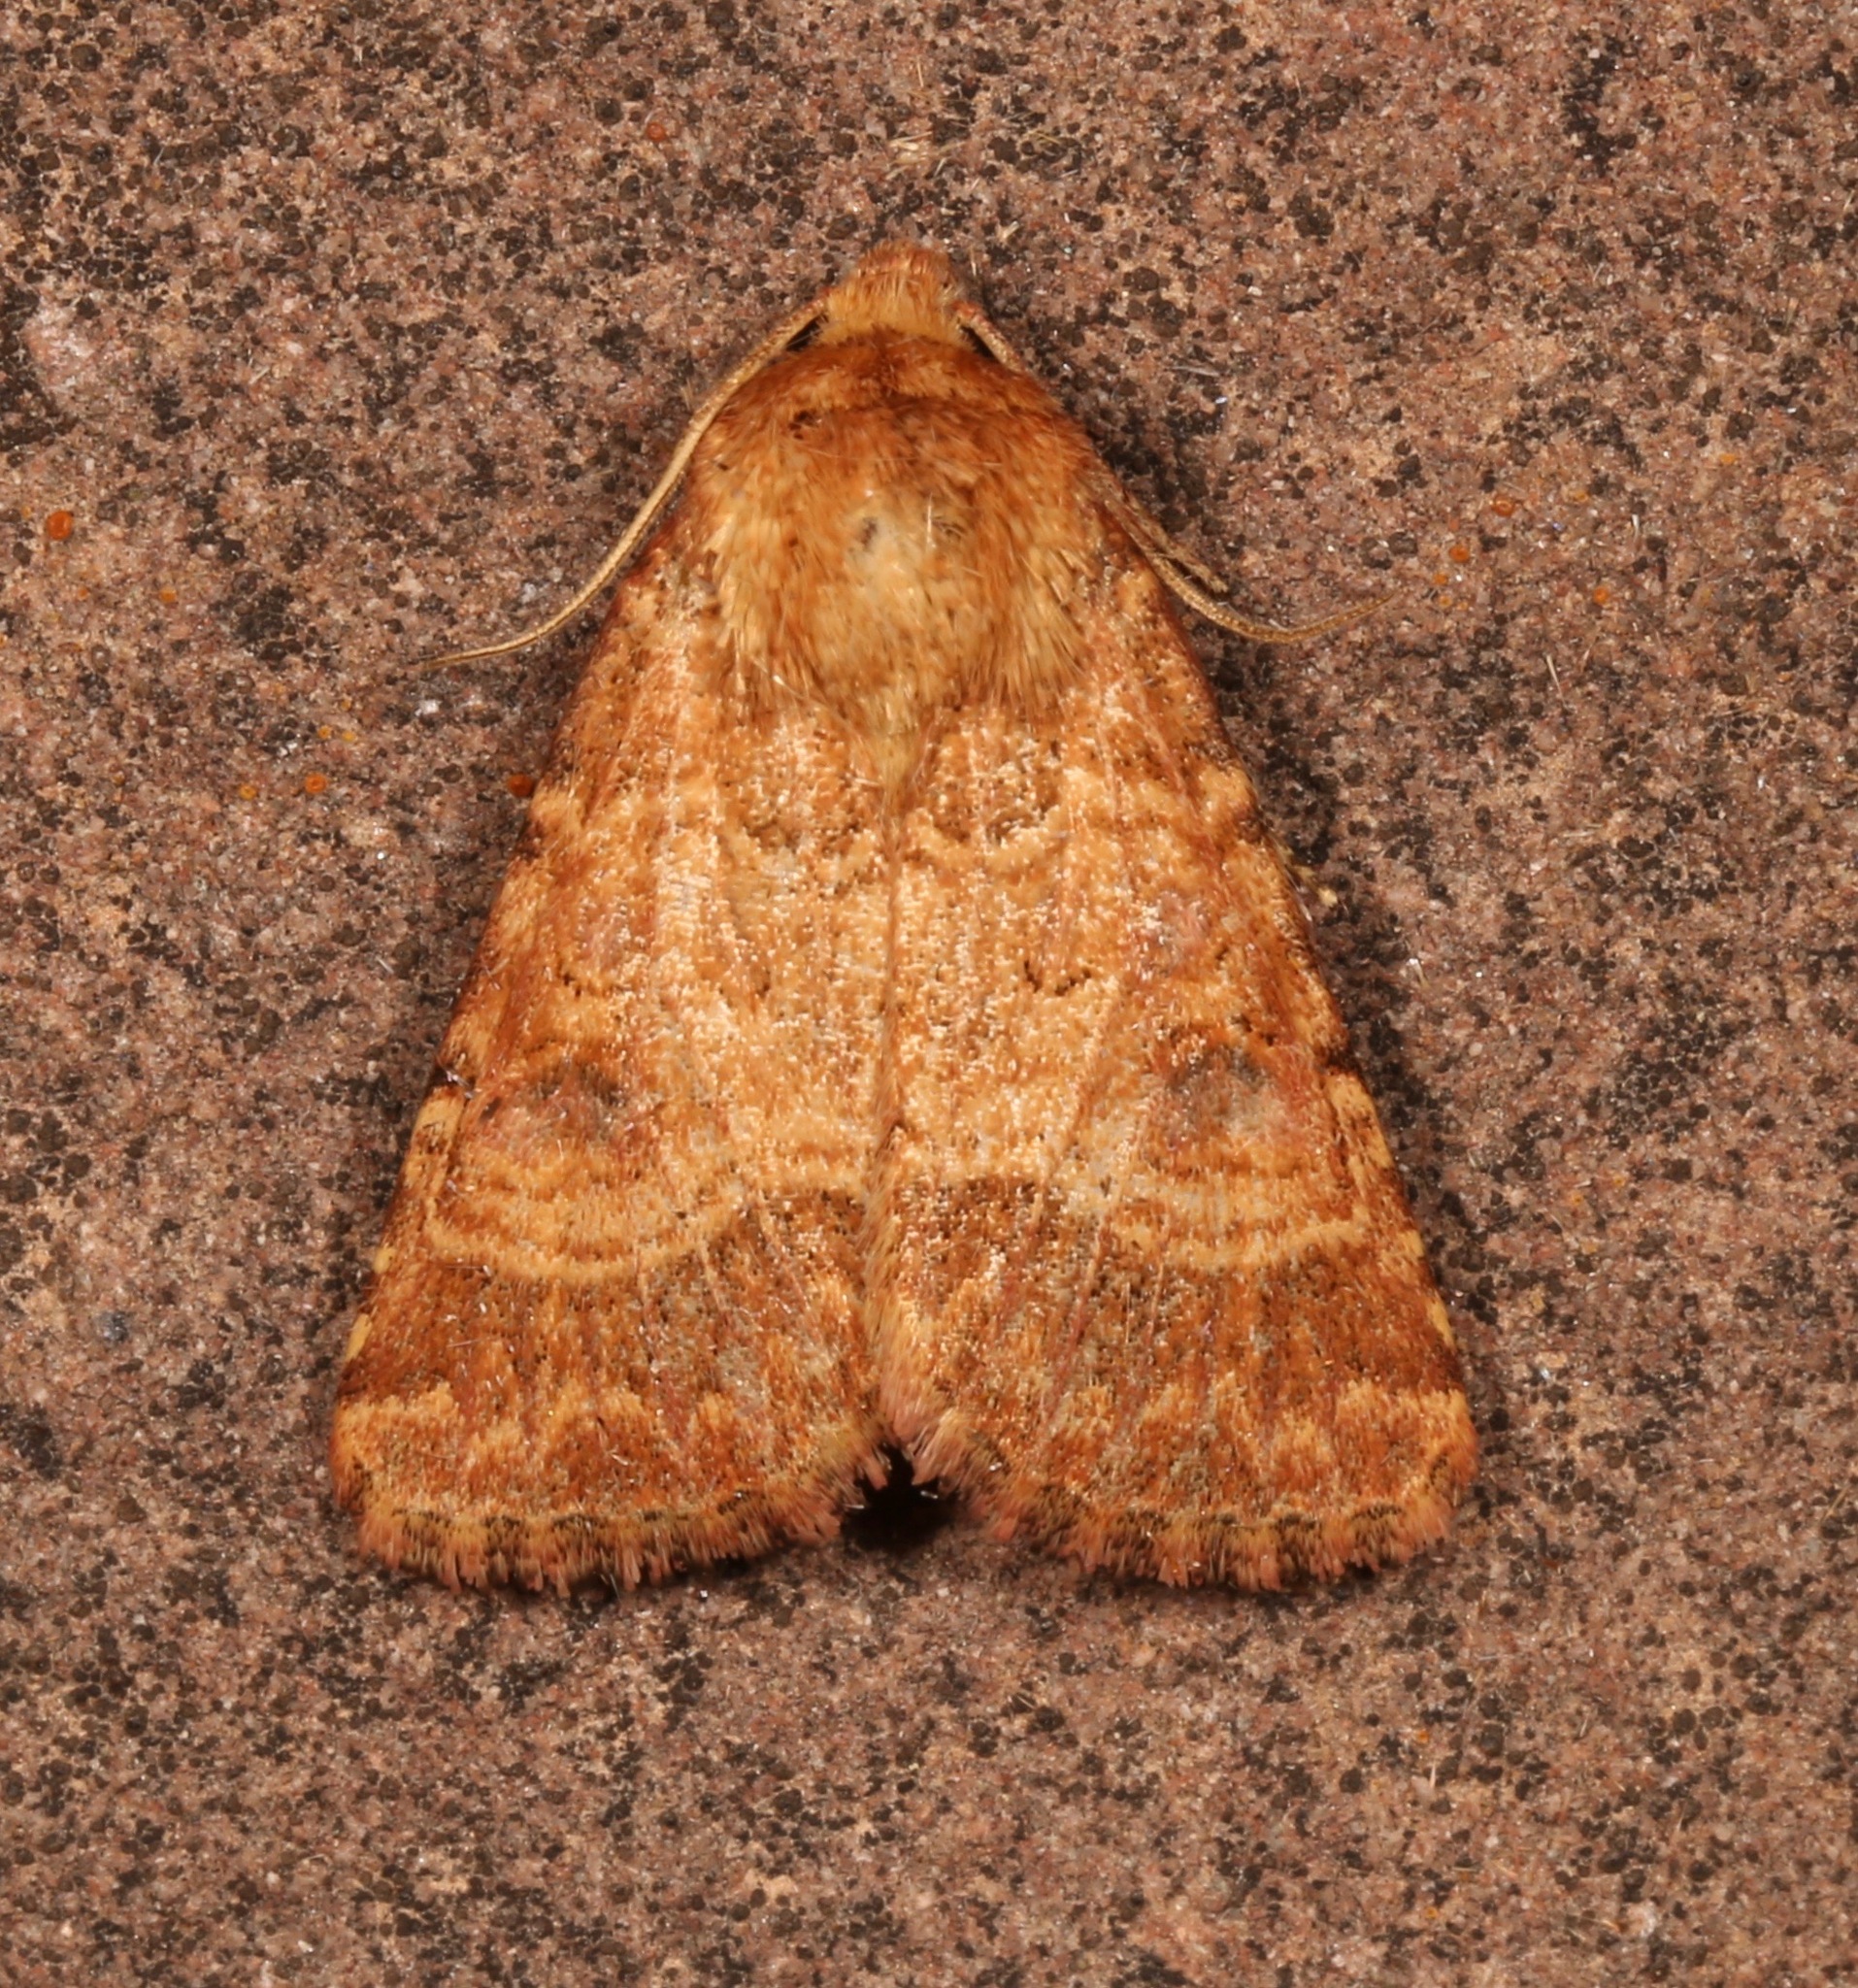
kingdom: Animalia
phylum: Arthropoda
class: Insecta
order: Lepidoptera
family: Noctuidae
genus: Schinia
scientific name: Schinia mexicana
